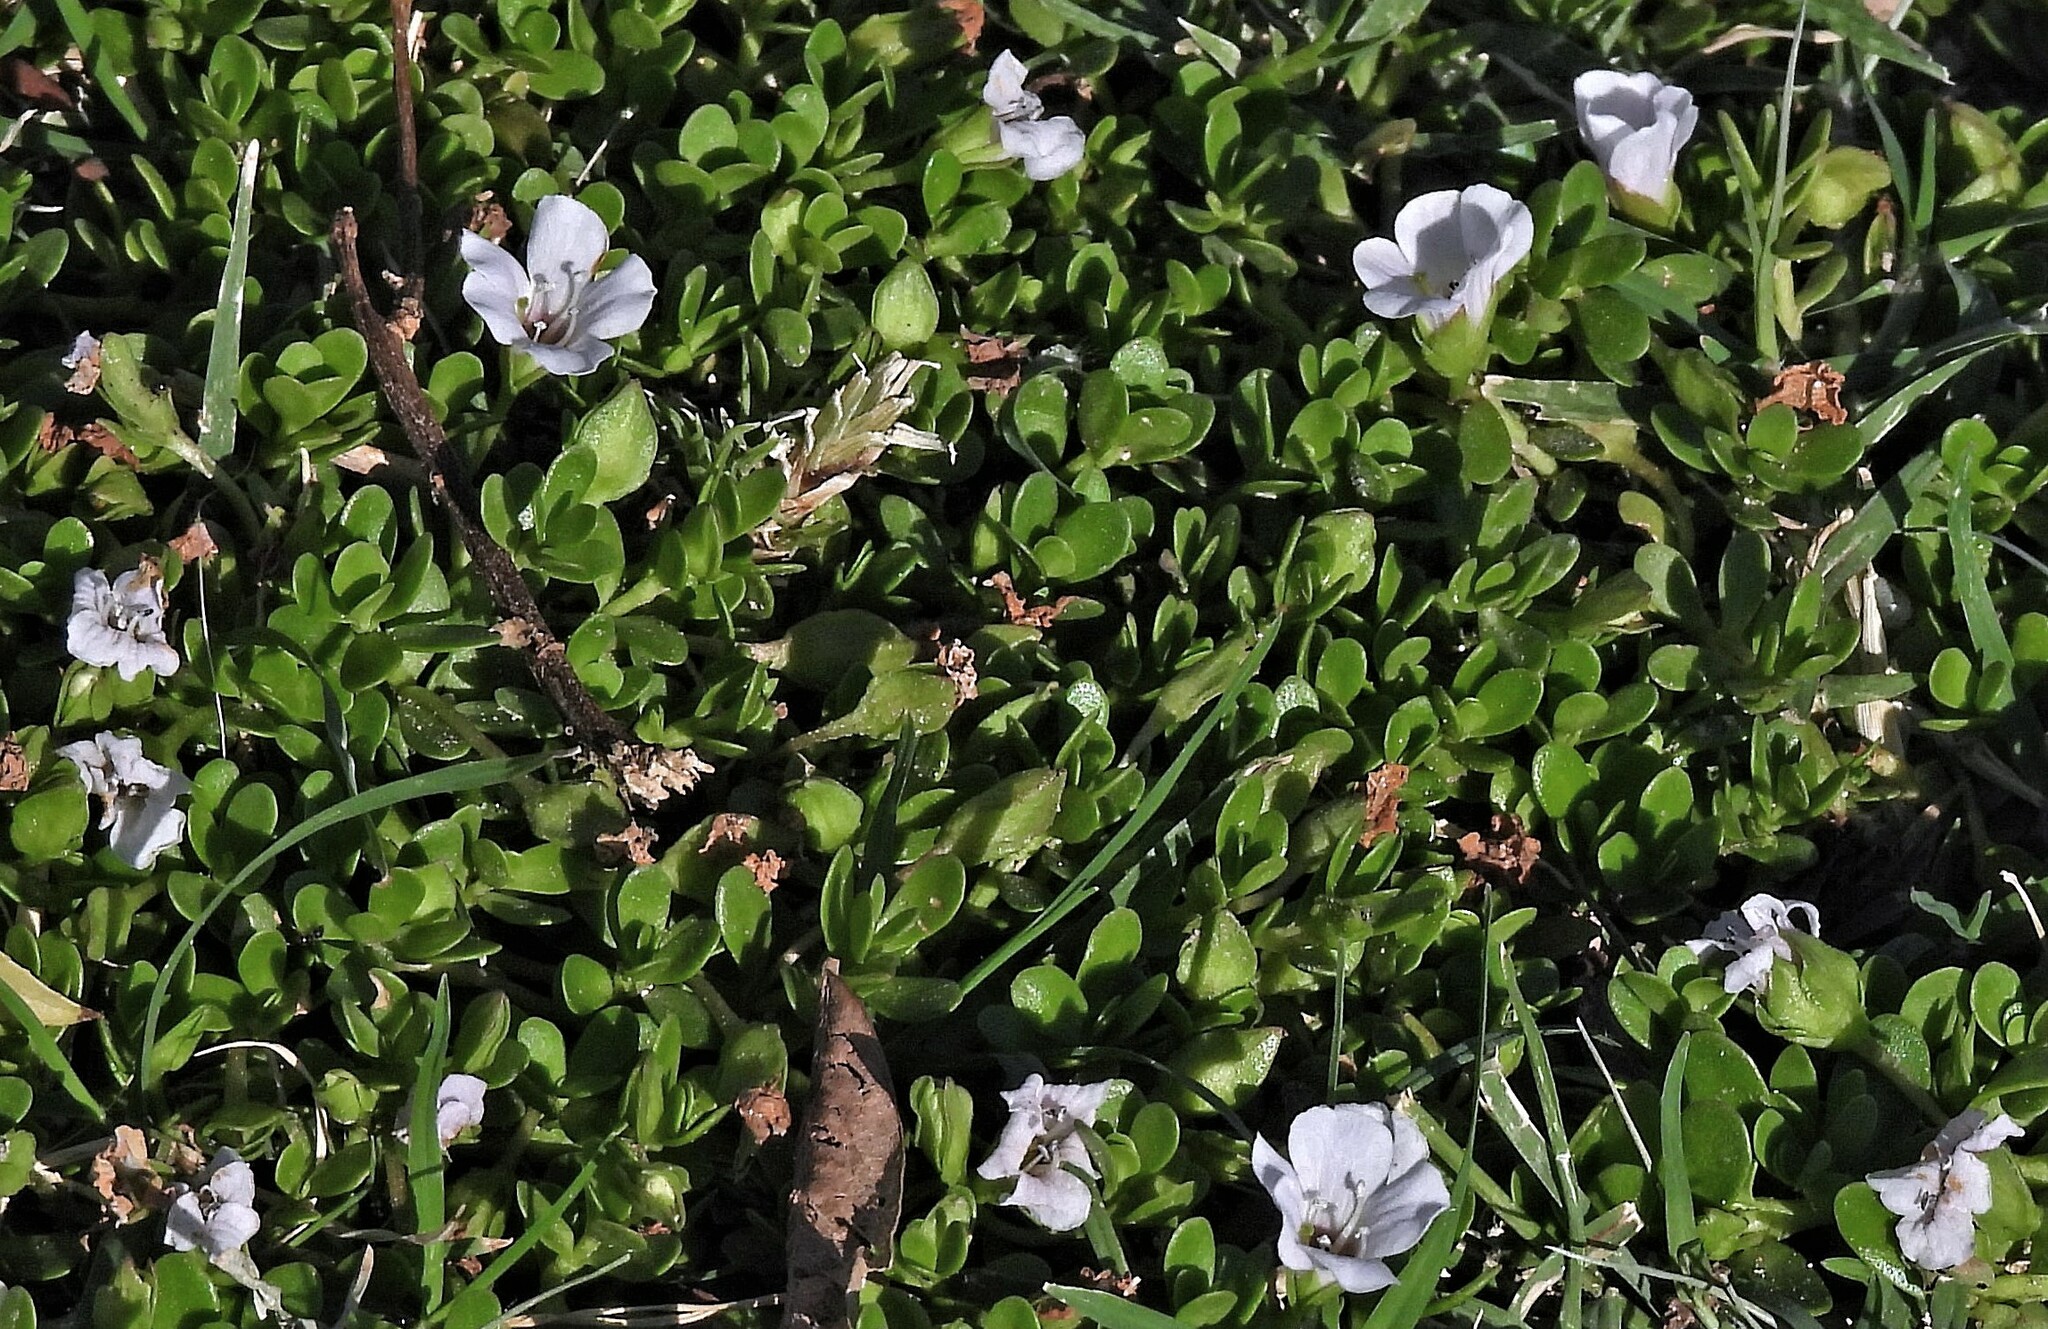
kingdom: Plantae
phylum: Tracheophyta
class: Magnoliopsida
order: Lamiales
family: Plantaginaceae
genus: Bacopa
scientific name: Bacopa monnieri
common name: Indian-pennywort
